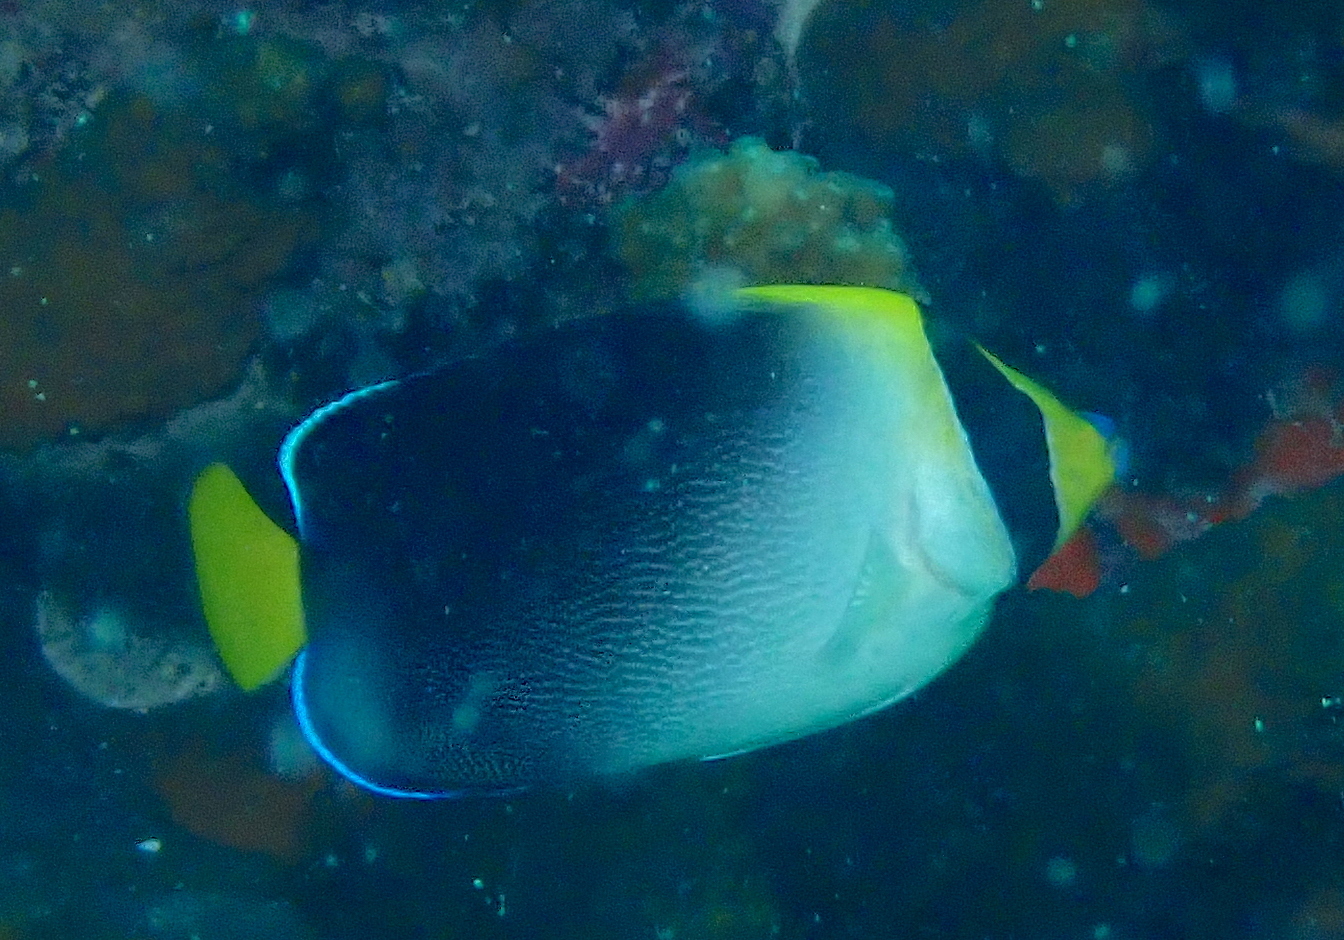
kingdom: Animalia
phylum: Chordata
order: Perciformes
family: Pomacanthidae
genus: Chaetodontoplus
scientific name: Chaetodontoplus mesoleucus
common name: Vermiculated angelfish
